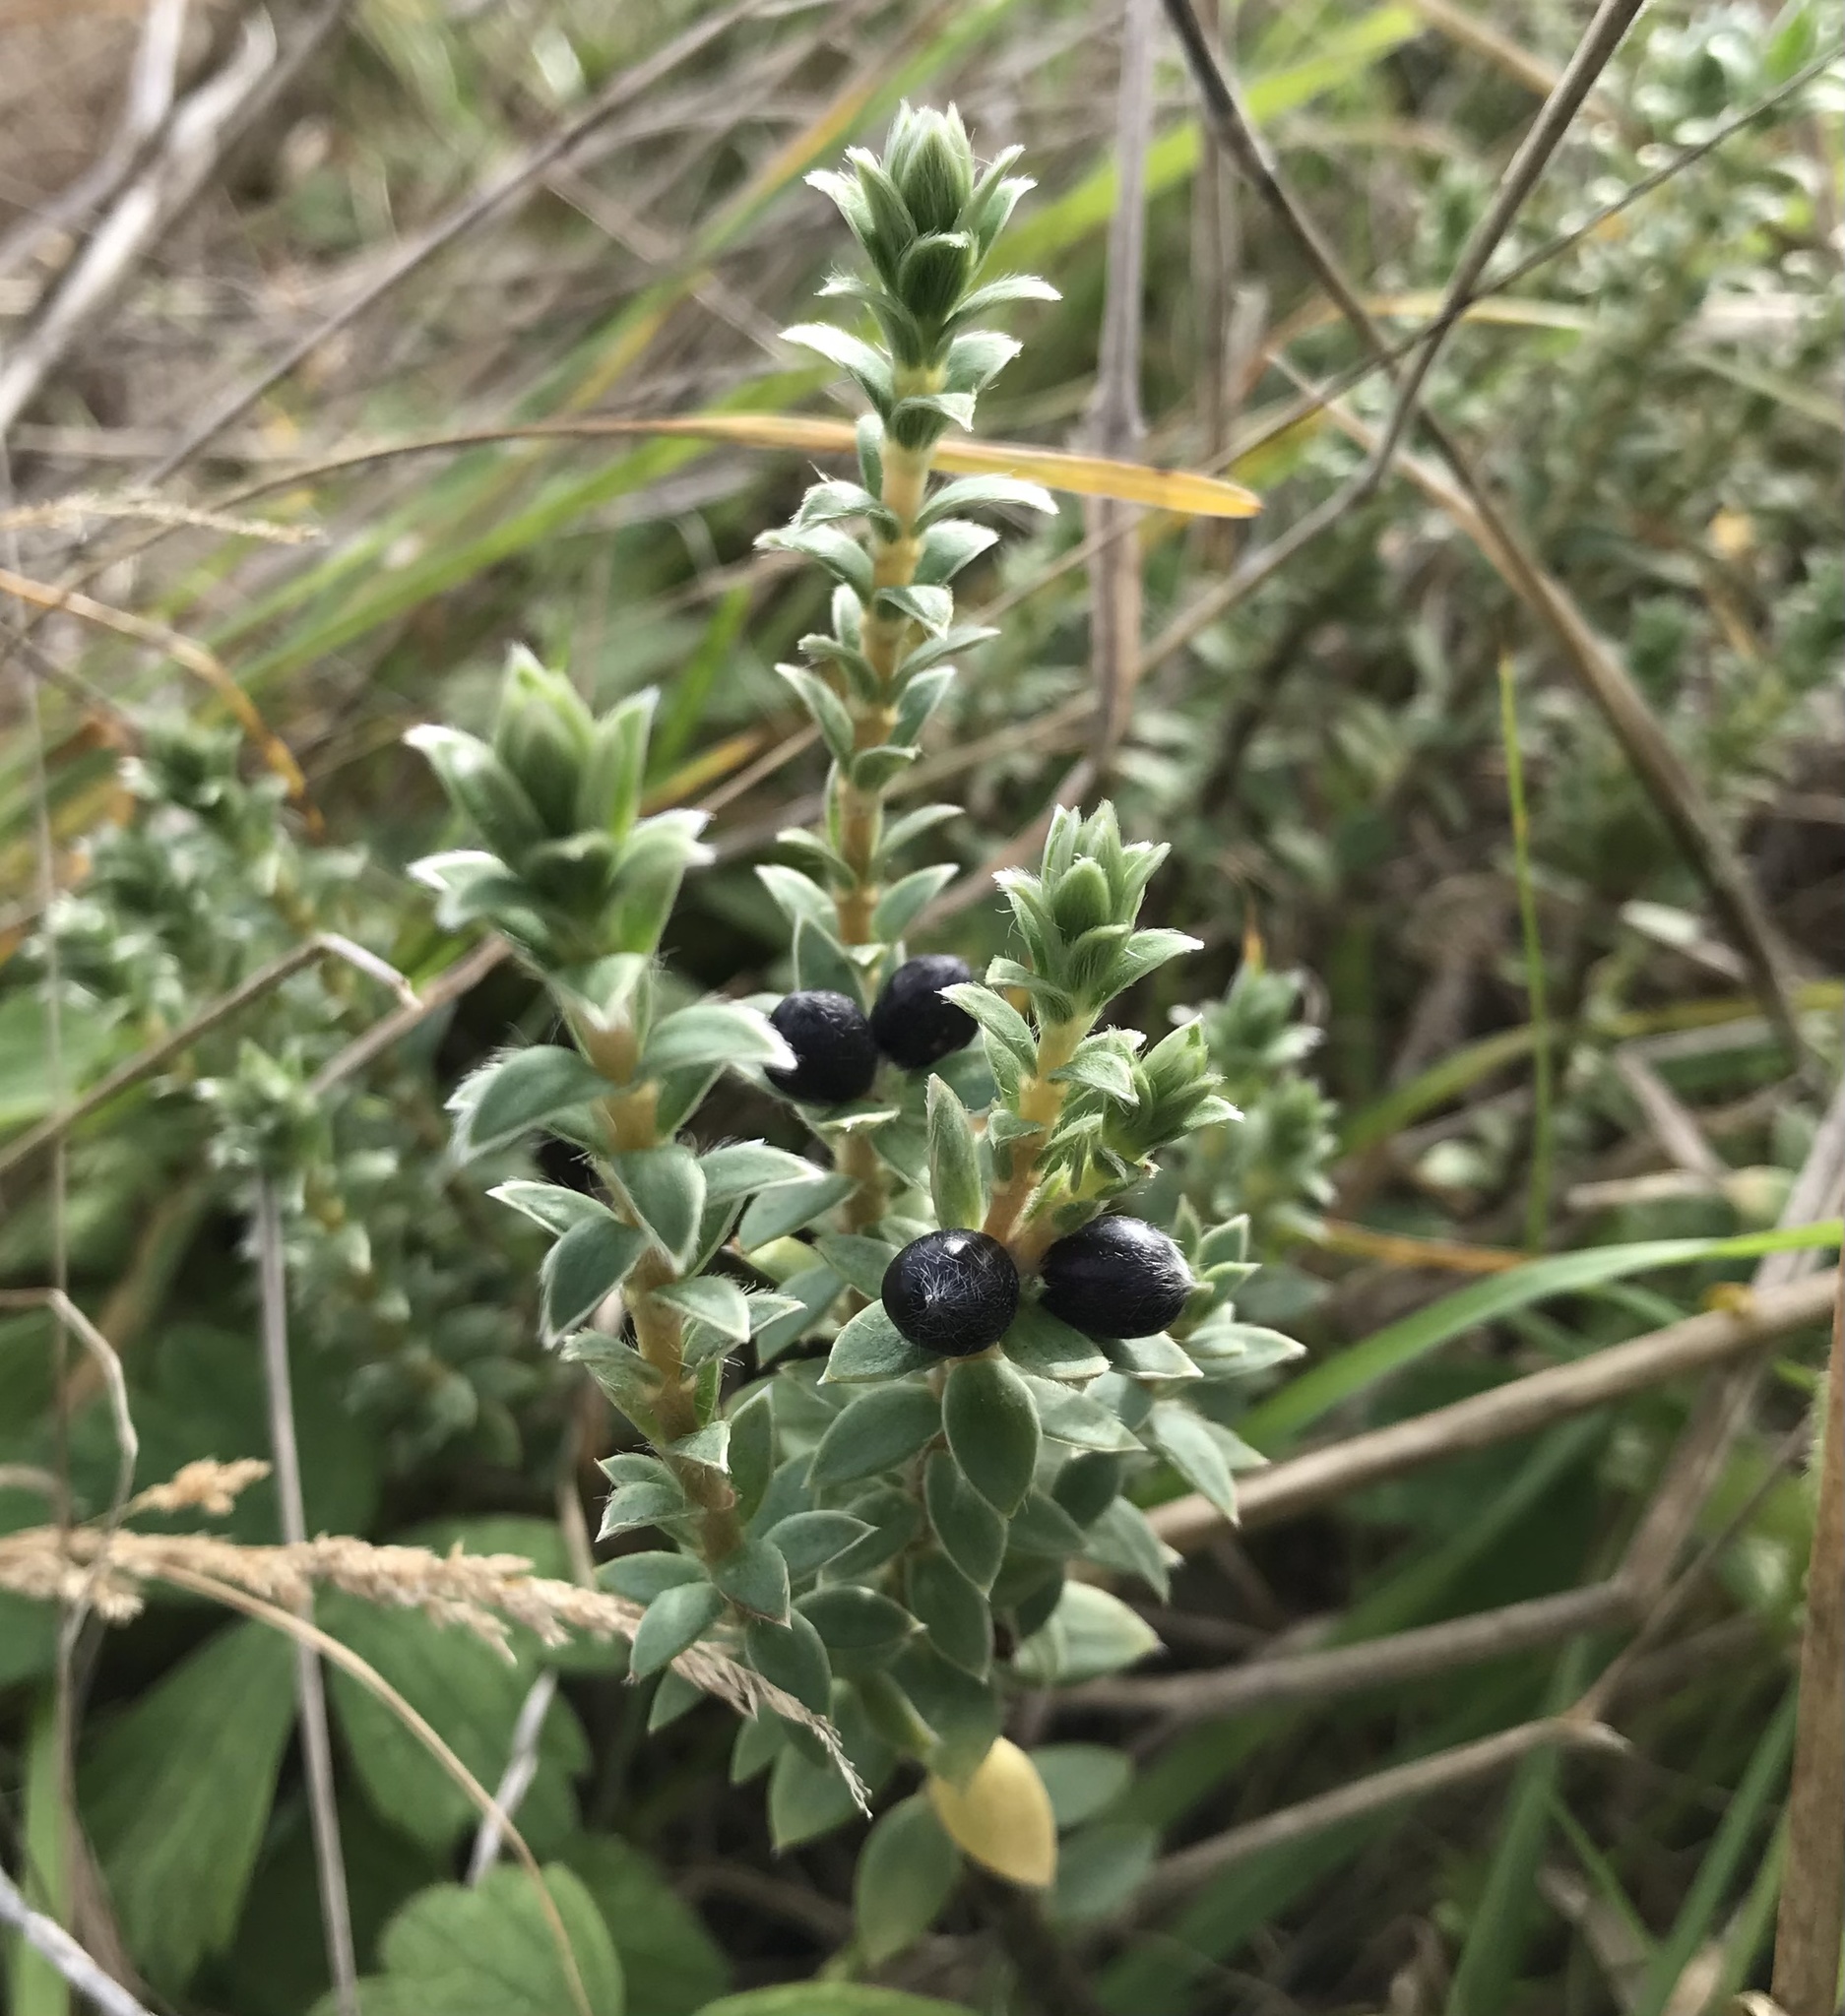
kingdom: Plantae
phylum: Tracheophyta
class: Magnoliopsida
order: Malvales
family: Thymelaeaceae
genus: Pimelea
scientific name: Pimelea villosa
